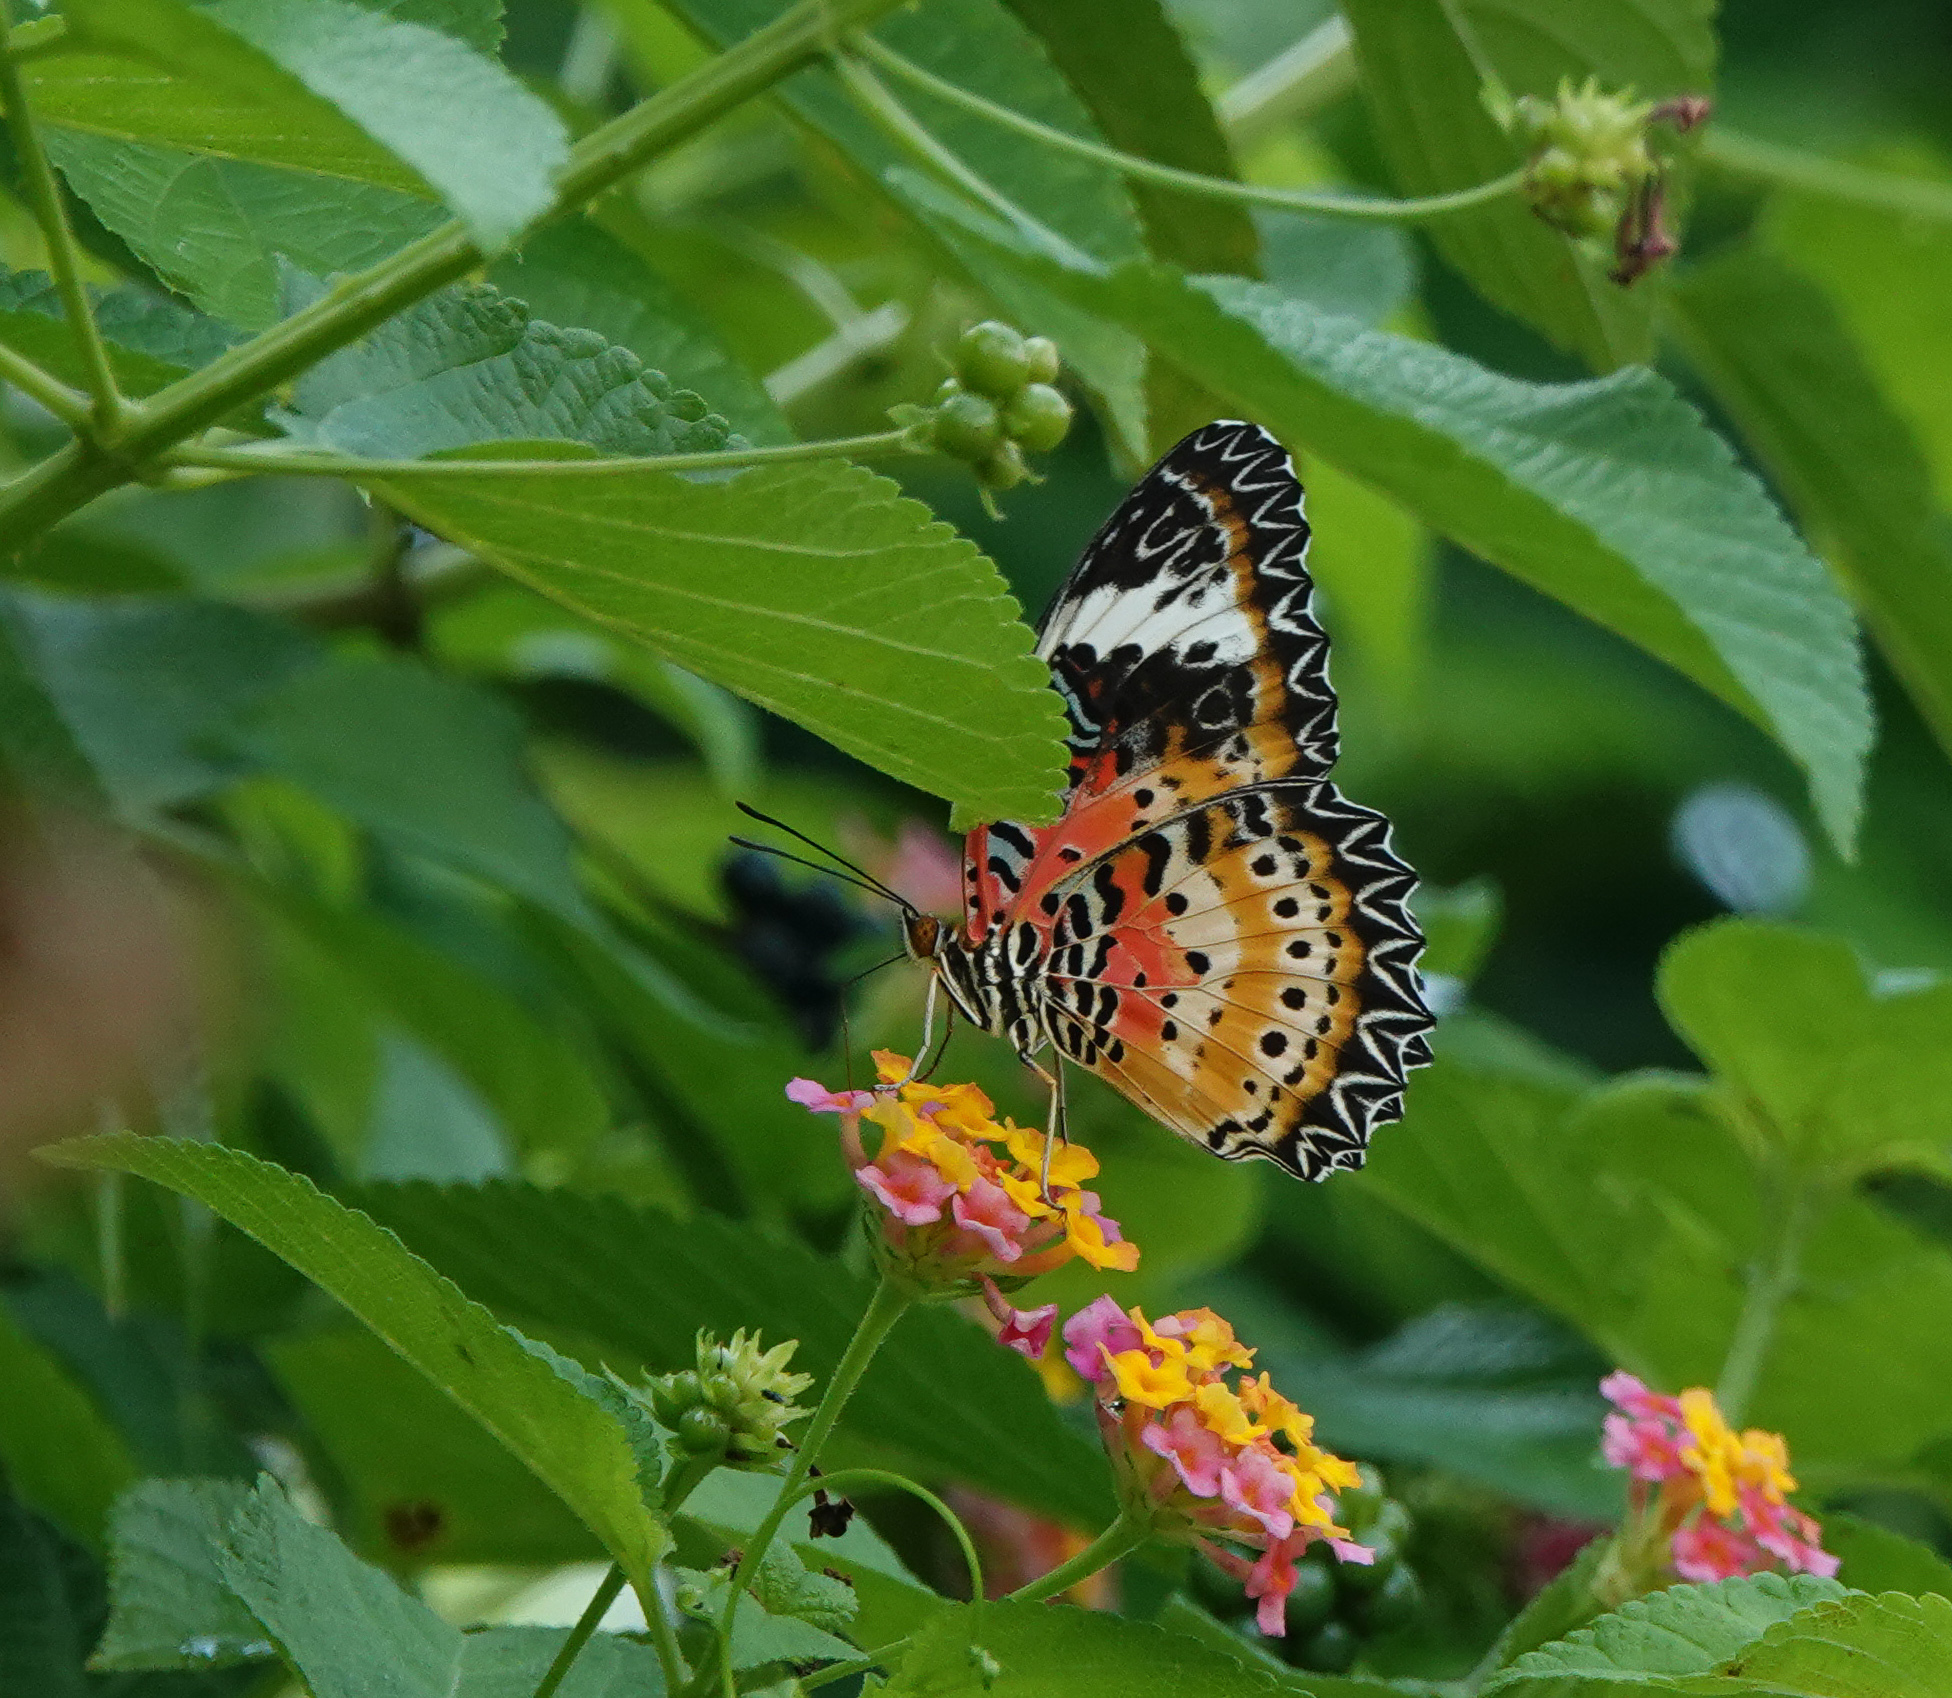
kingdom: Animalia
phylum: Arthropoda
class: Insecta
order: Lepidoptera
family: Nymphalidae
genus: Cethosia
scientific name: Cethosia cyane
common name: Leopard lacewing butterfly
